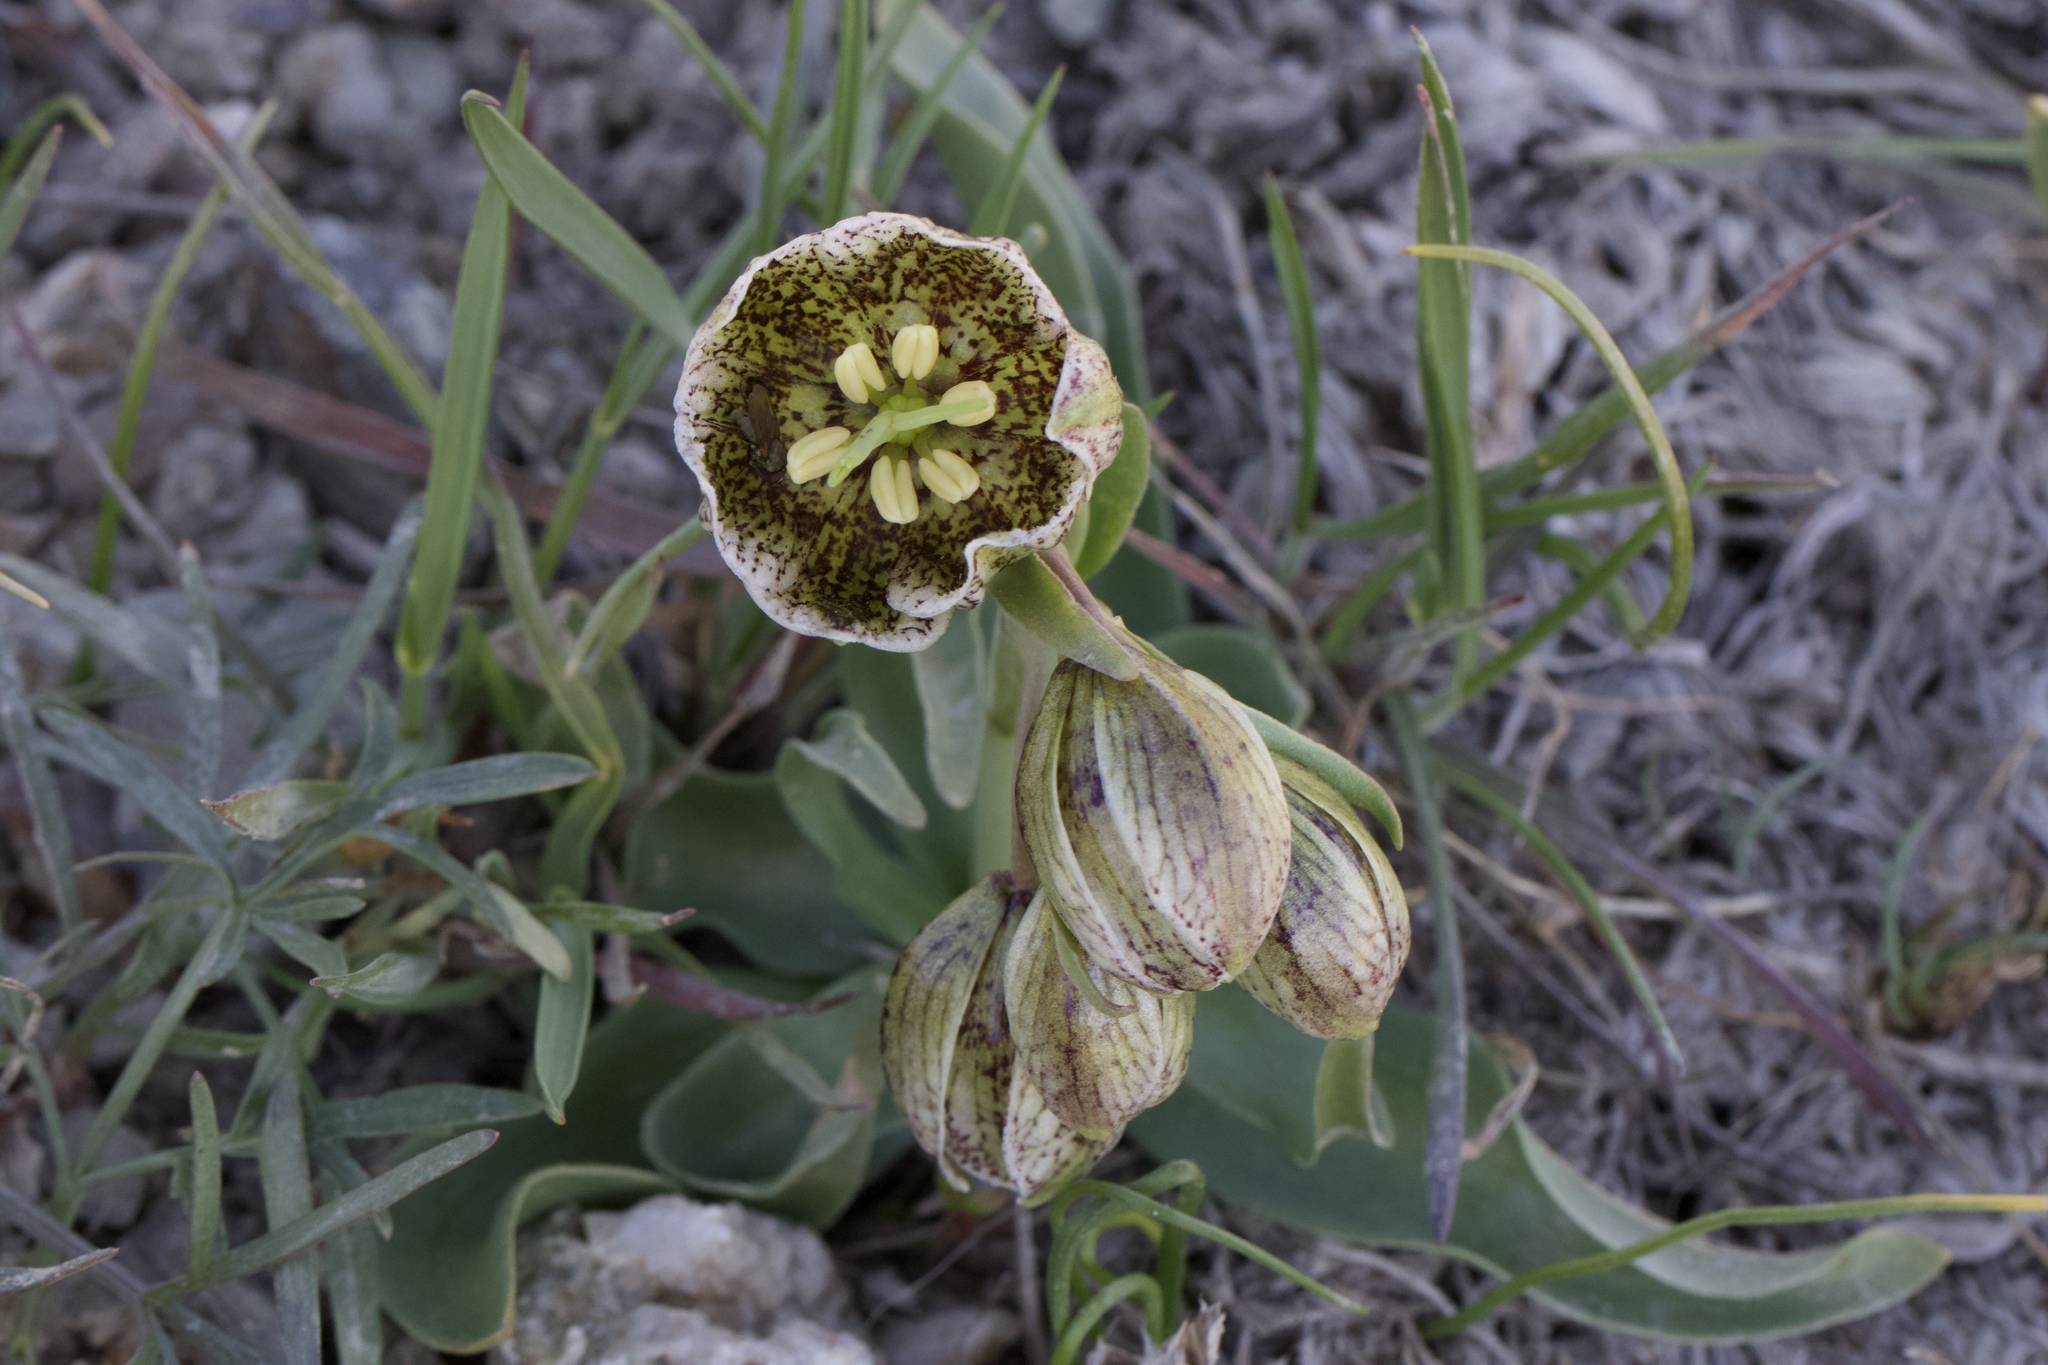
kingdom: Plantae
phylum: Tracheophyta
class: Liliopsida
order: Liliales
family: Liliaceae
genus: Fritillaria
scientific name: Fritillaria purdyi
